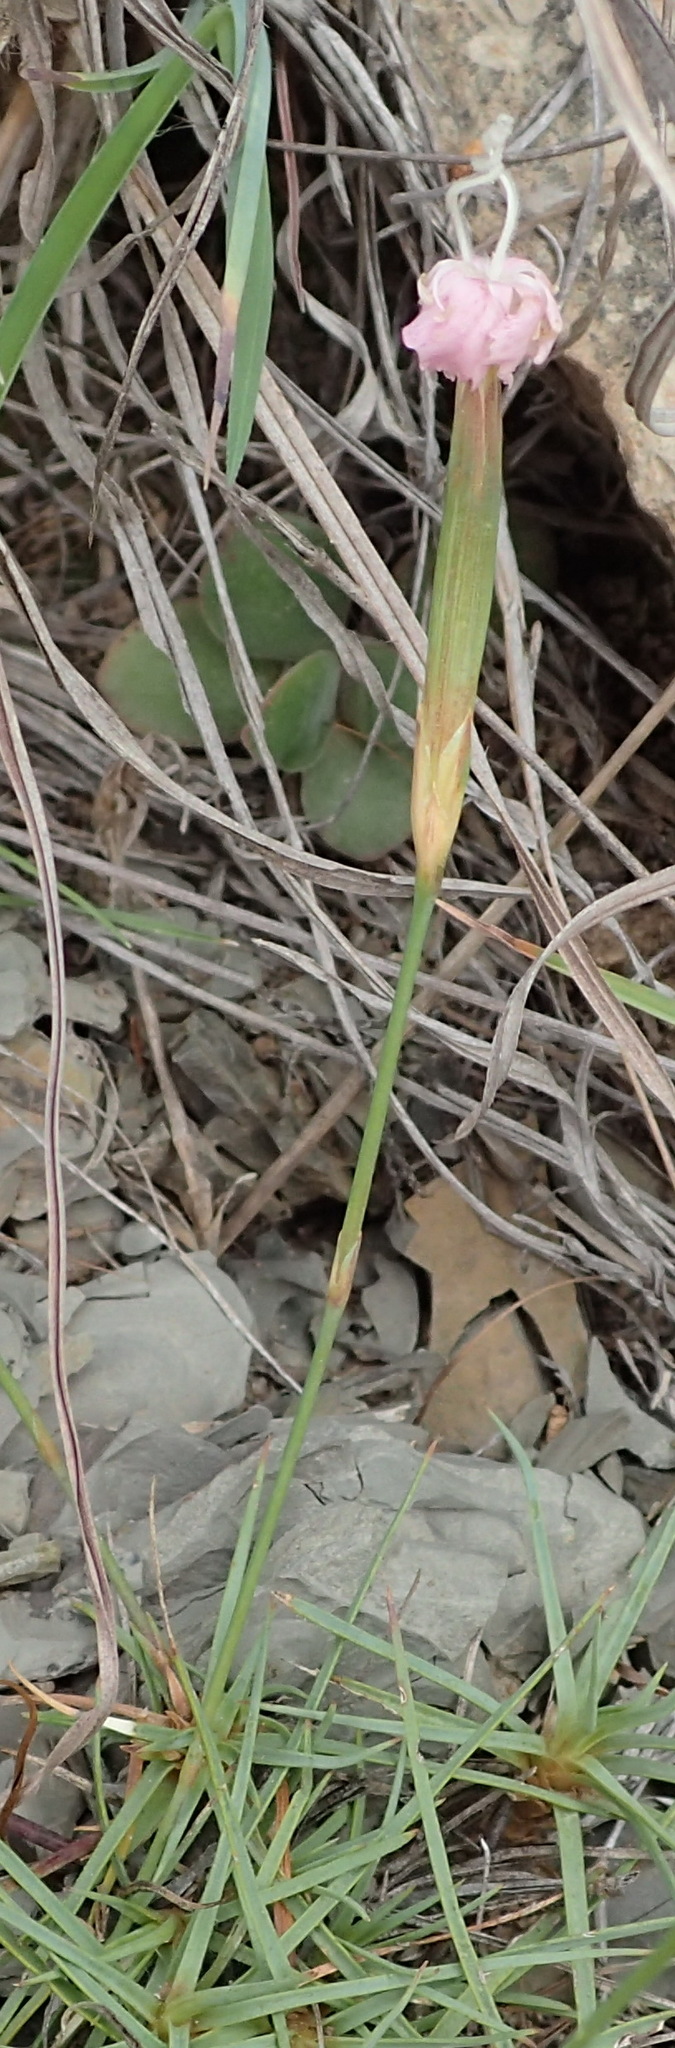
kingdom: Plantae
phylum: Tracheophyta
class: Magnoliopsida
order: Caryophyllales
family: Caryophyllaceae
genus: Dianthus
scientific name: Dianthus micropetalus
